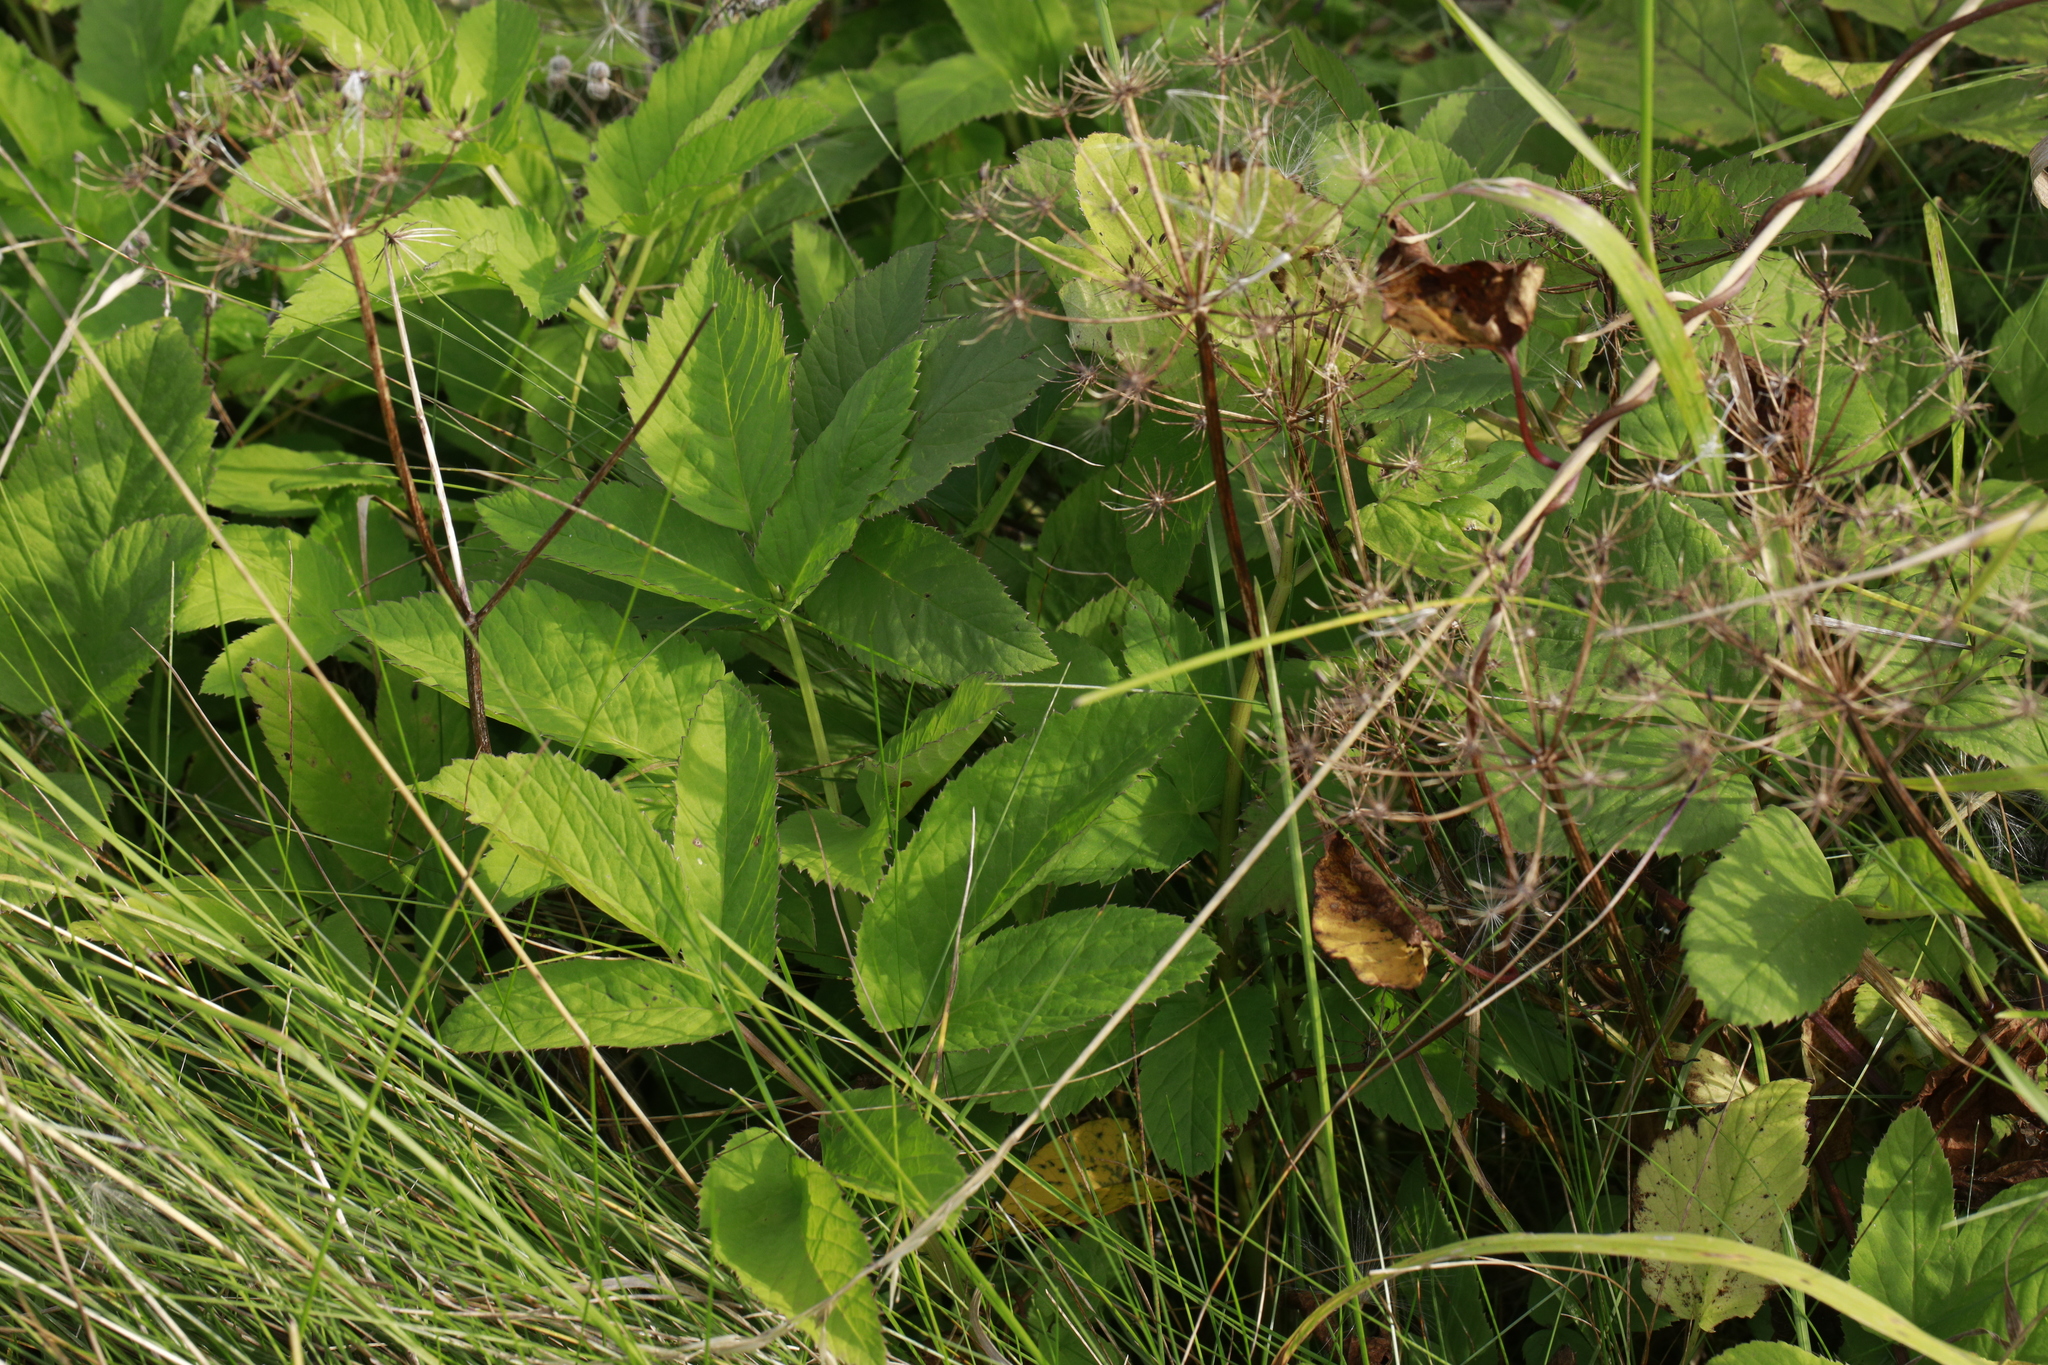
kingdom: Plantae
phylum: Tracheophyta
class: Magnoliopsida
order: Apiales
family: Apiaceae
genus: Aegopodium
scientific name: Aegopodium podagraria
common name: Ground-elder
